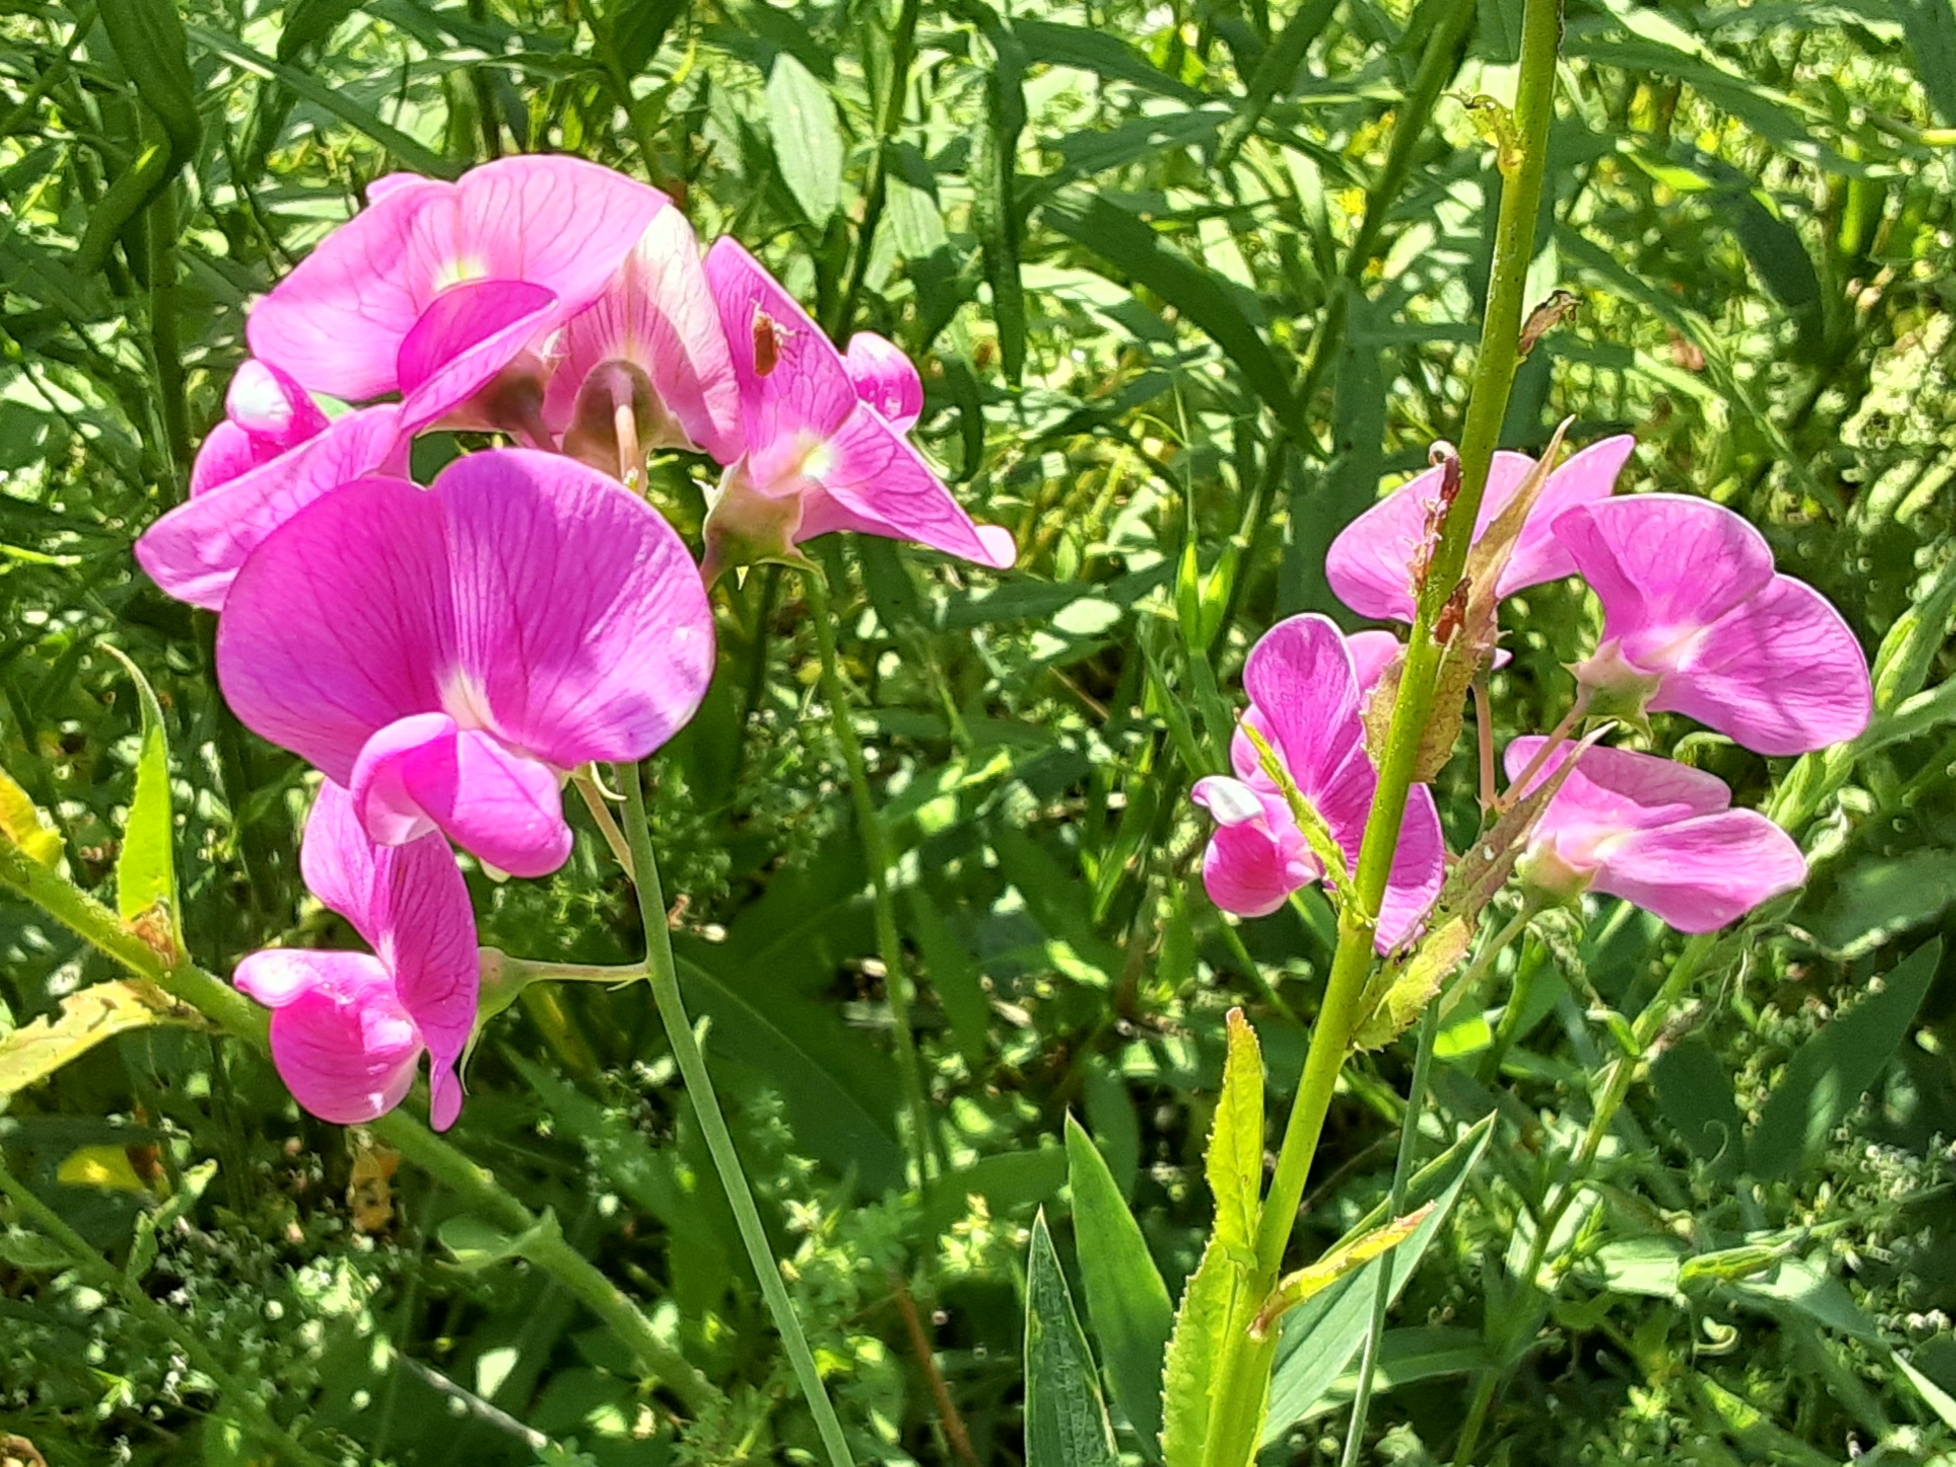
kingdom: Plantae
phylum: Tracheophyta
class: Magnoliopsida
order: Fabales
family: Fabaceae
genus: Lathyrus
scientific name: Lathyrus latifolius
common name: Perennial pea
